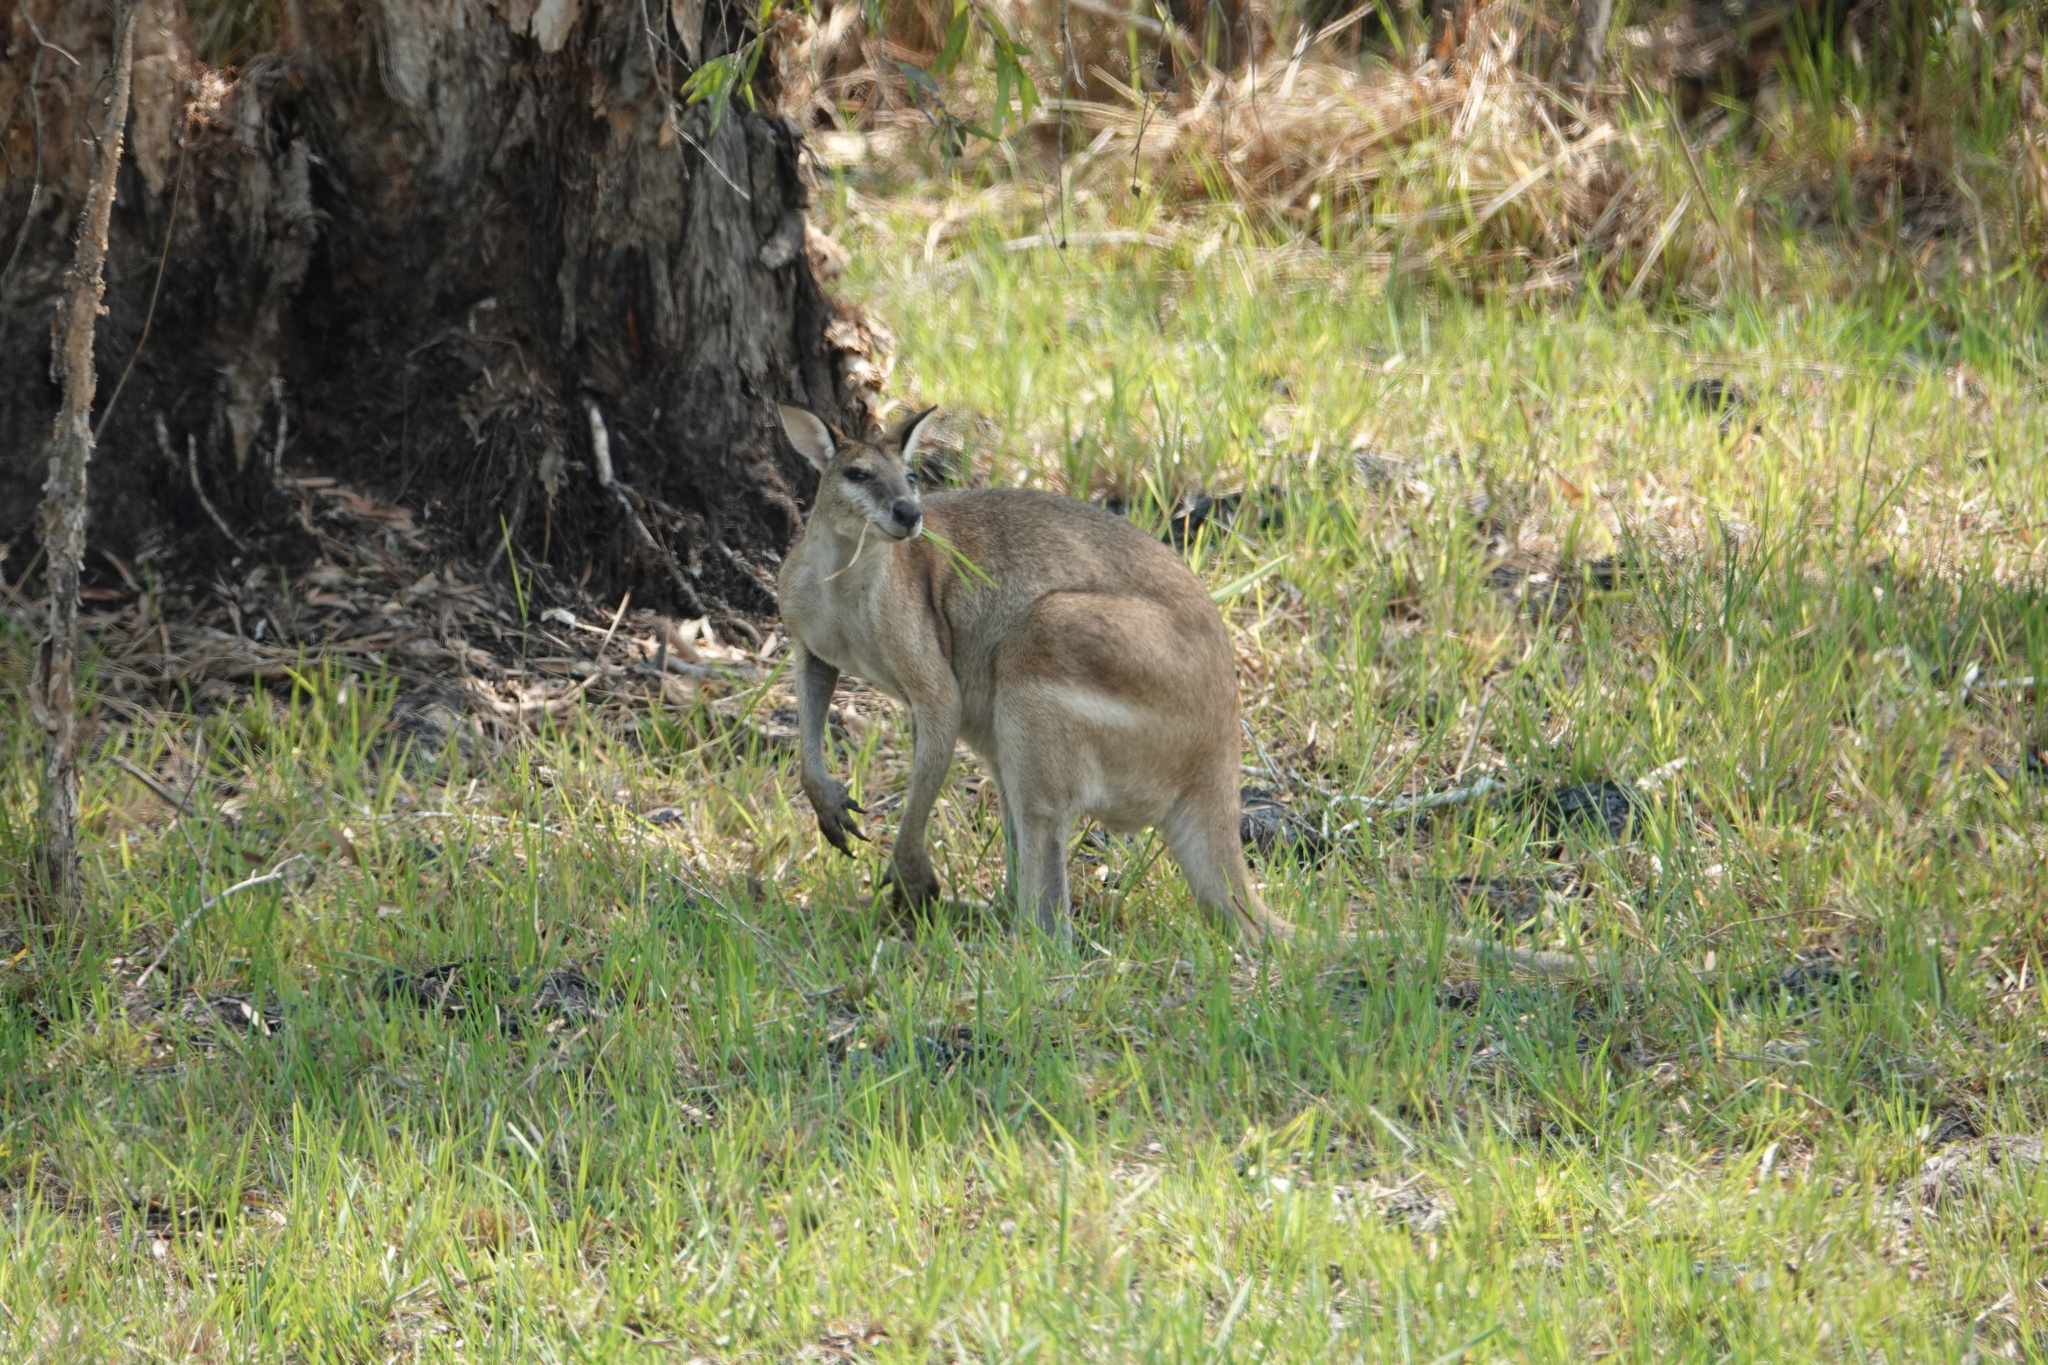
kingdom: Animalia
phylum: Chordata
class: Mammalia
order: Diprotodontia
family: Macropodidae
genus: Macropus
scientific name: Macropus agilis
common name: Agile wallaby
